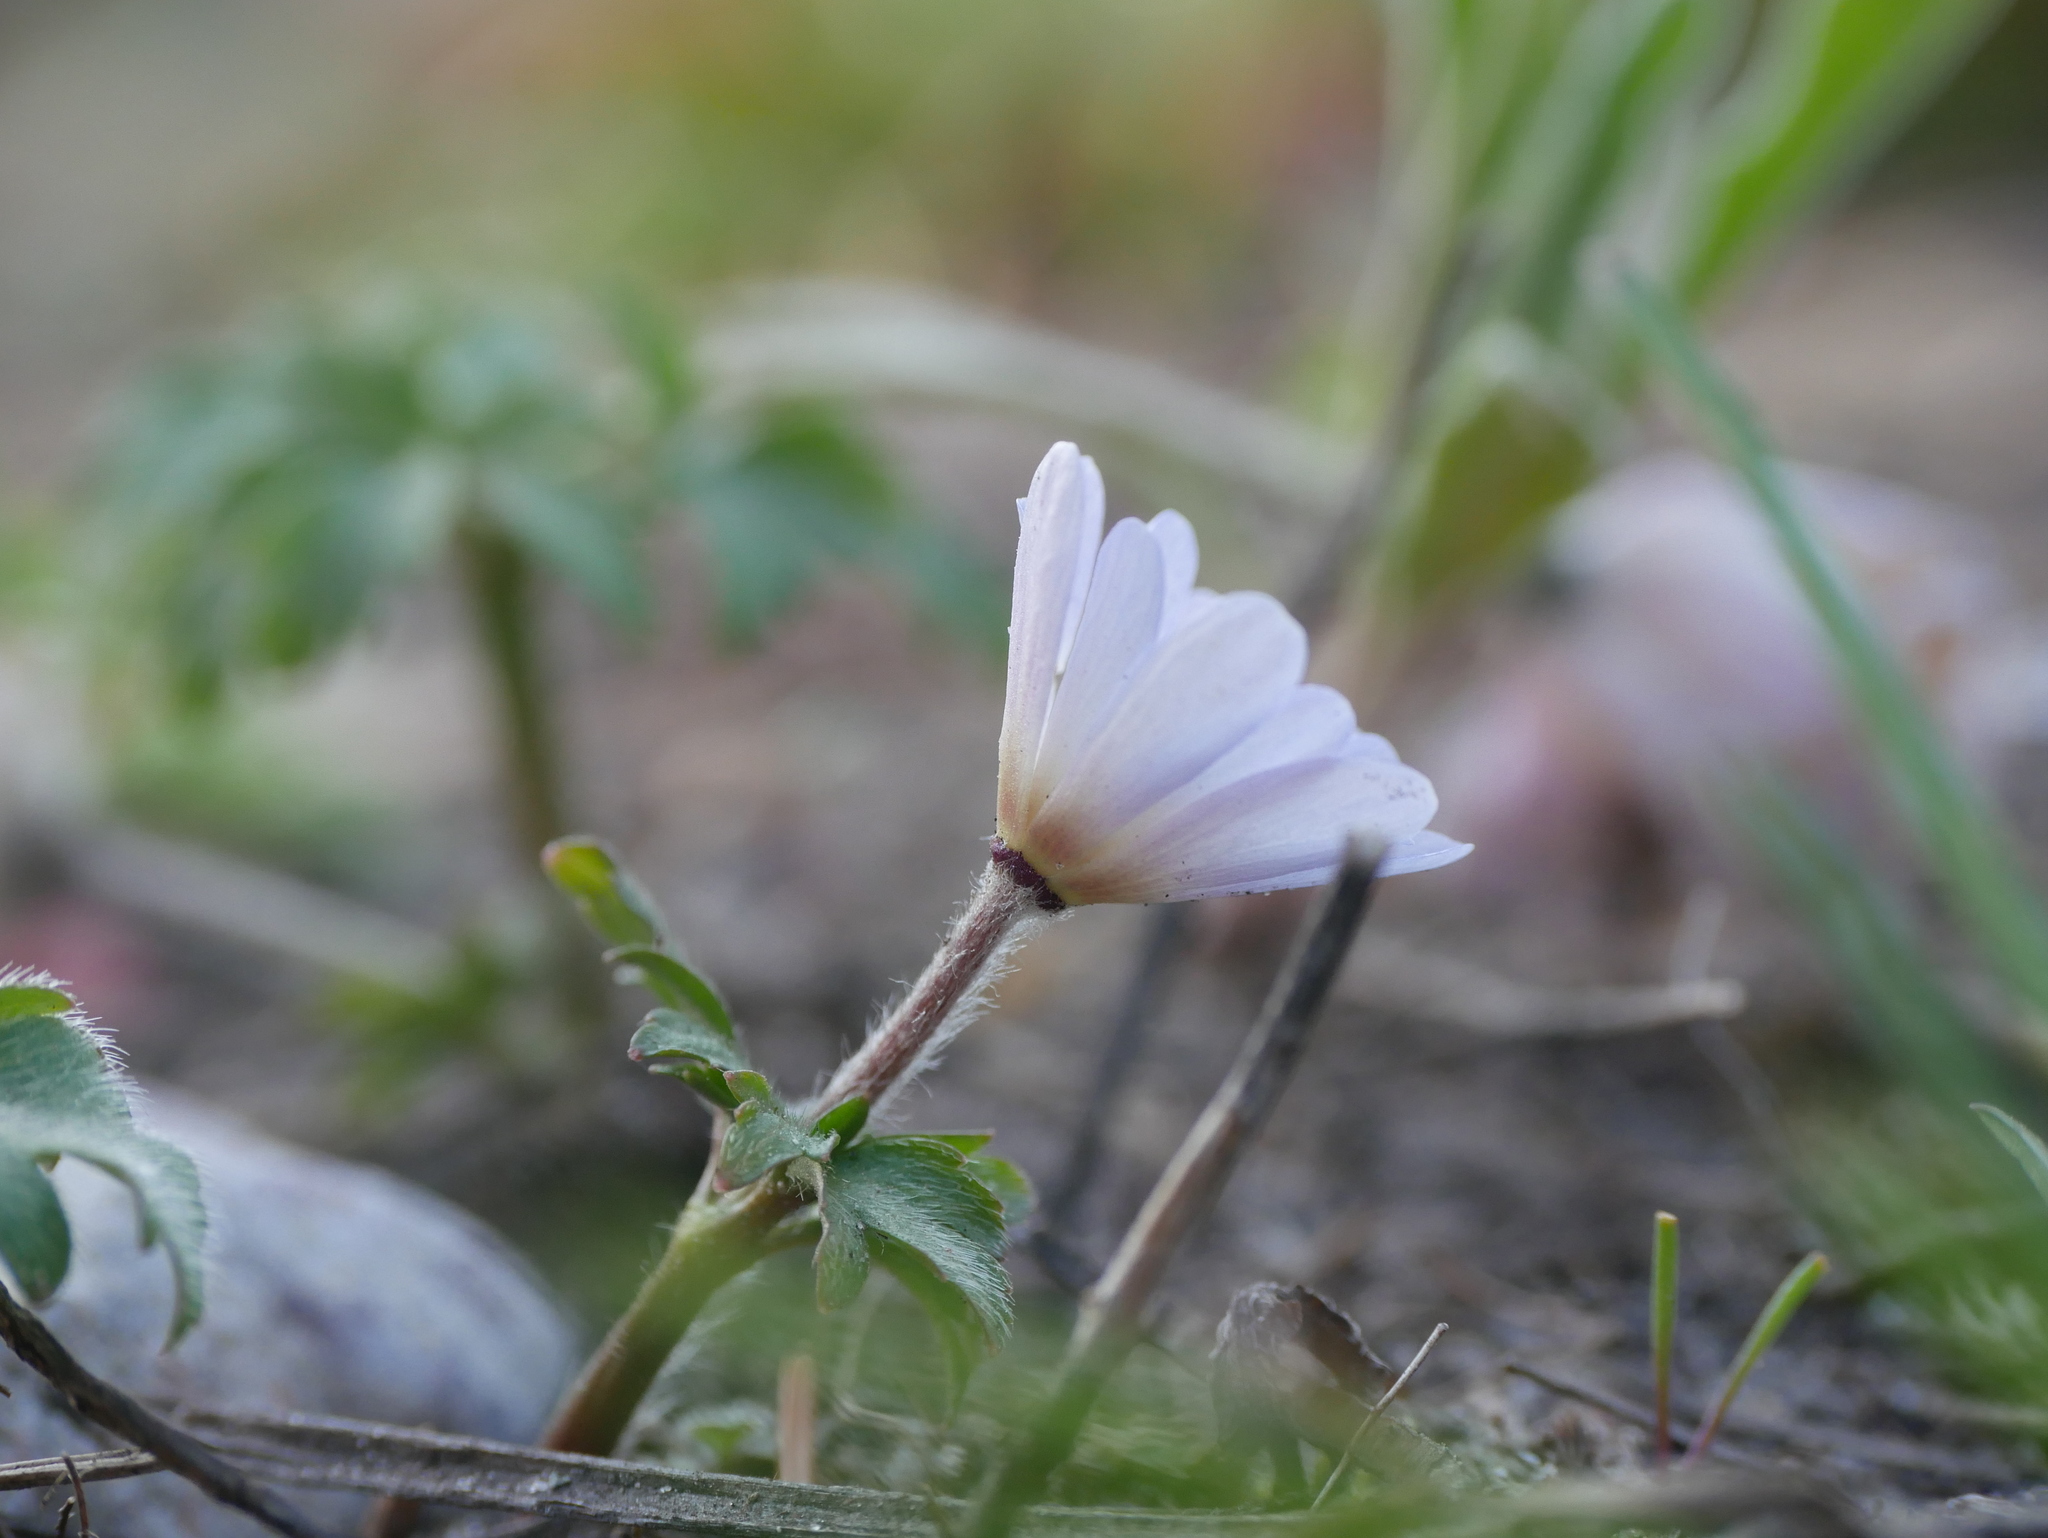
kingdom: Plantae
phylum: Tracheophyta
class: Magnoliopsida
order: Ranunculales
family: Ranunculaceae
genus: Anemone
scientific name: Anemone blanda
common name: Balkan anemone
